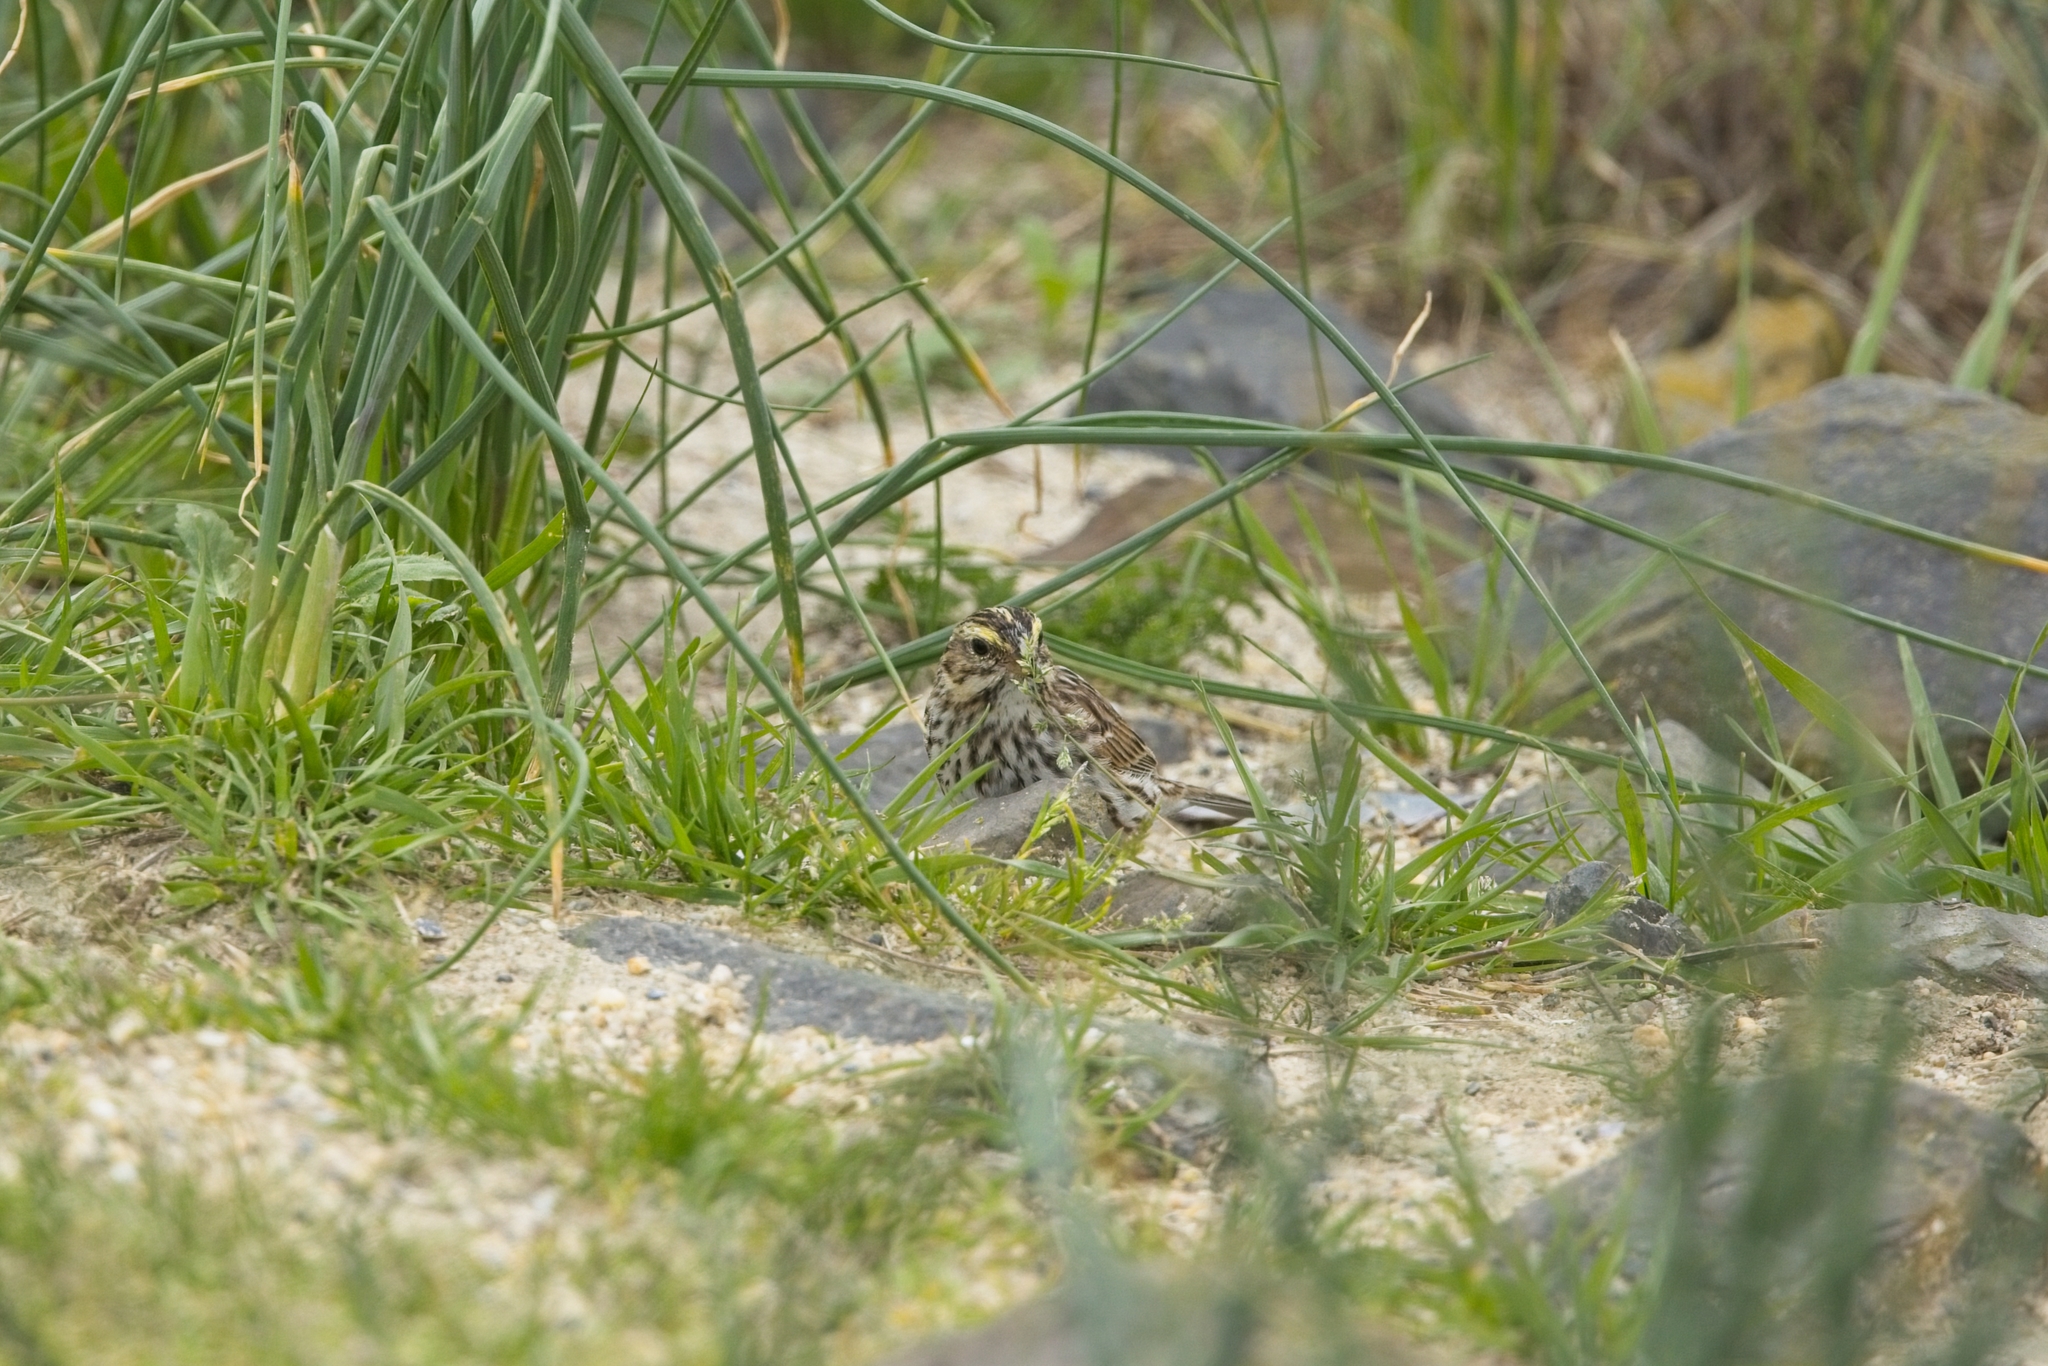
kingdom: Animalia
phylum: Chordata
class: Aves
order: Passeriformes
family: Passerellidae
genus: Passerculus
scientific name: Passerculus sandwichensis
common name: Savannah sparrow
